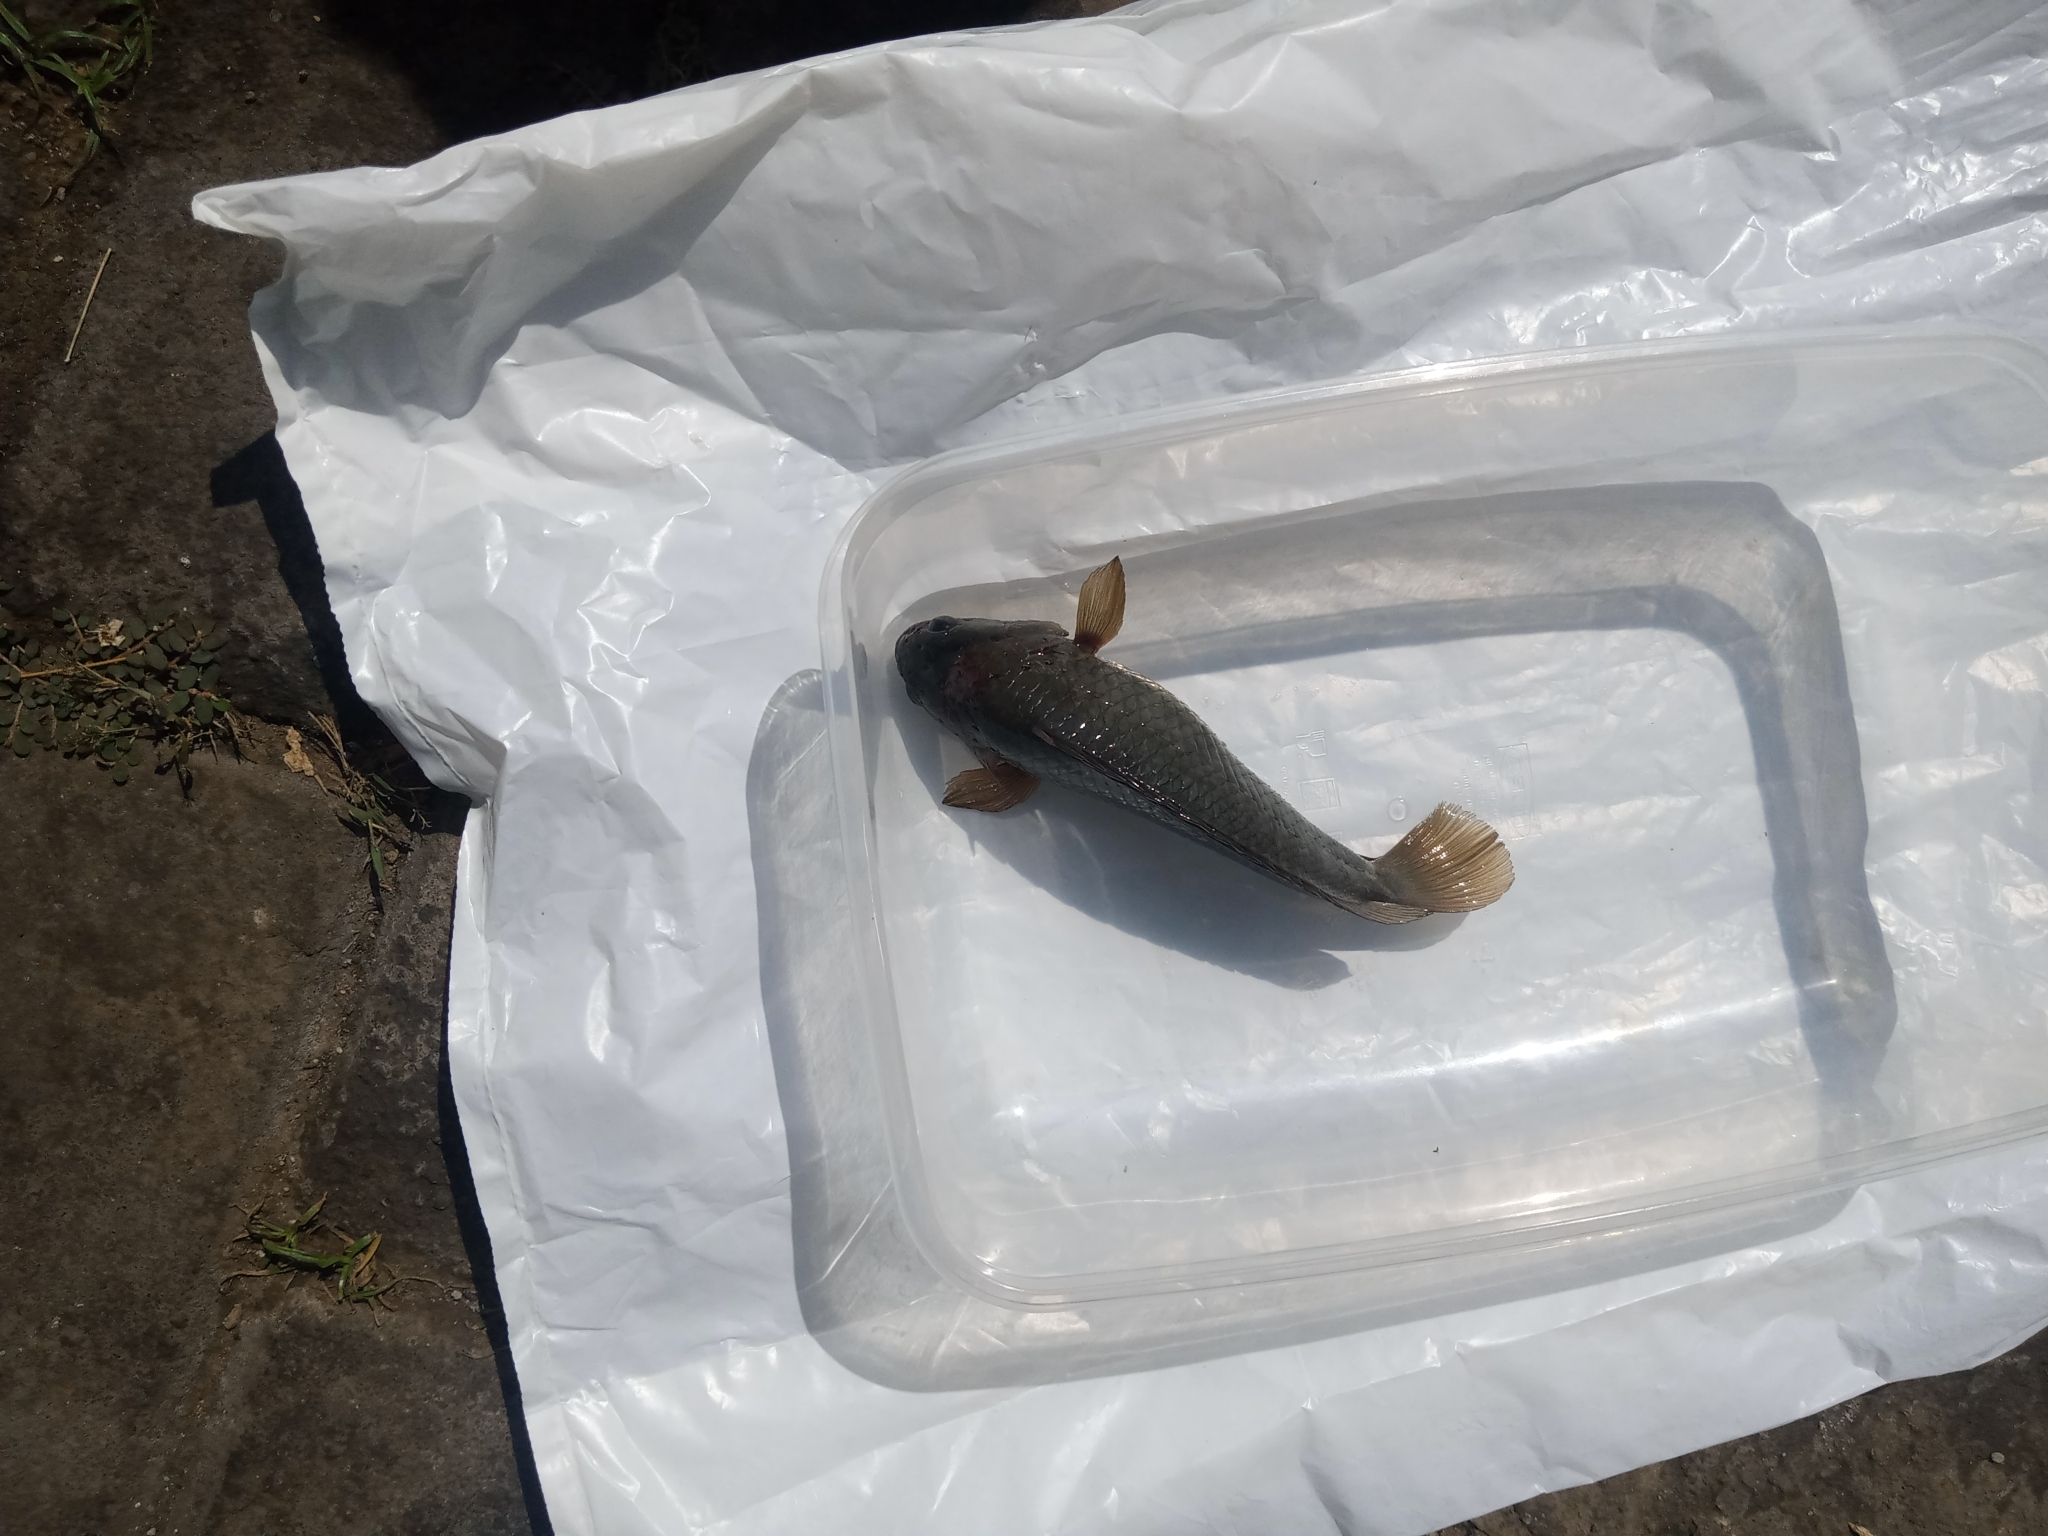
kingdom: Animalia
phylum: Chordata
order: Perciformes
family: Anabantidae
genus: Anabas
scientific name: Anabas testudineus
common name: Climbing perch
